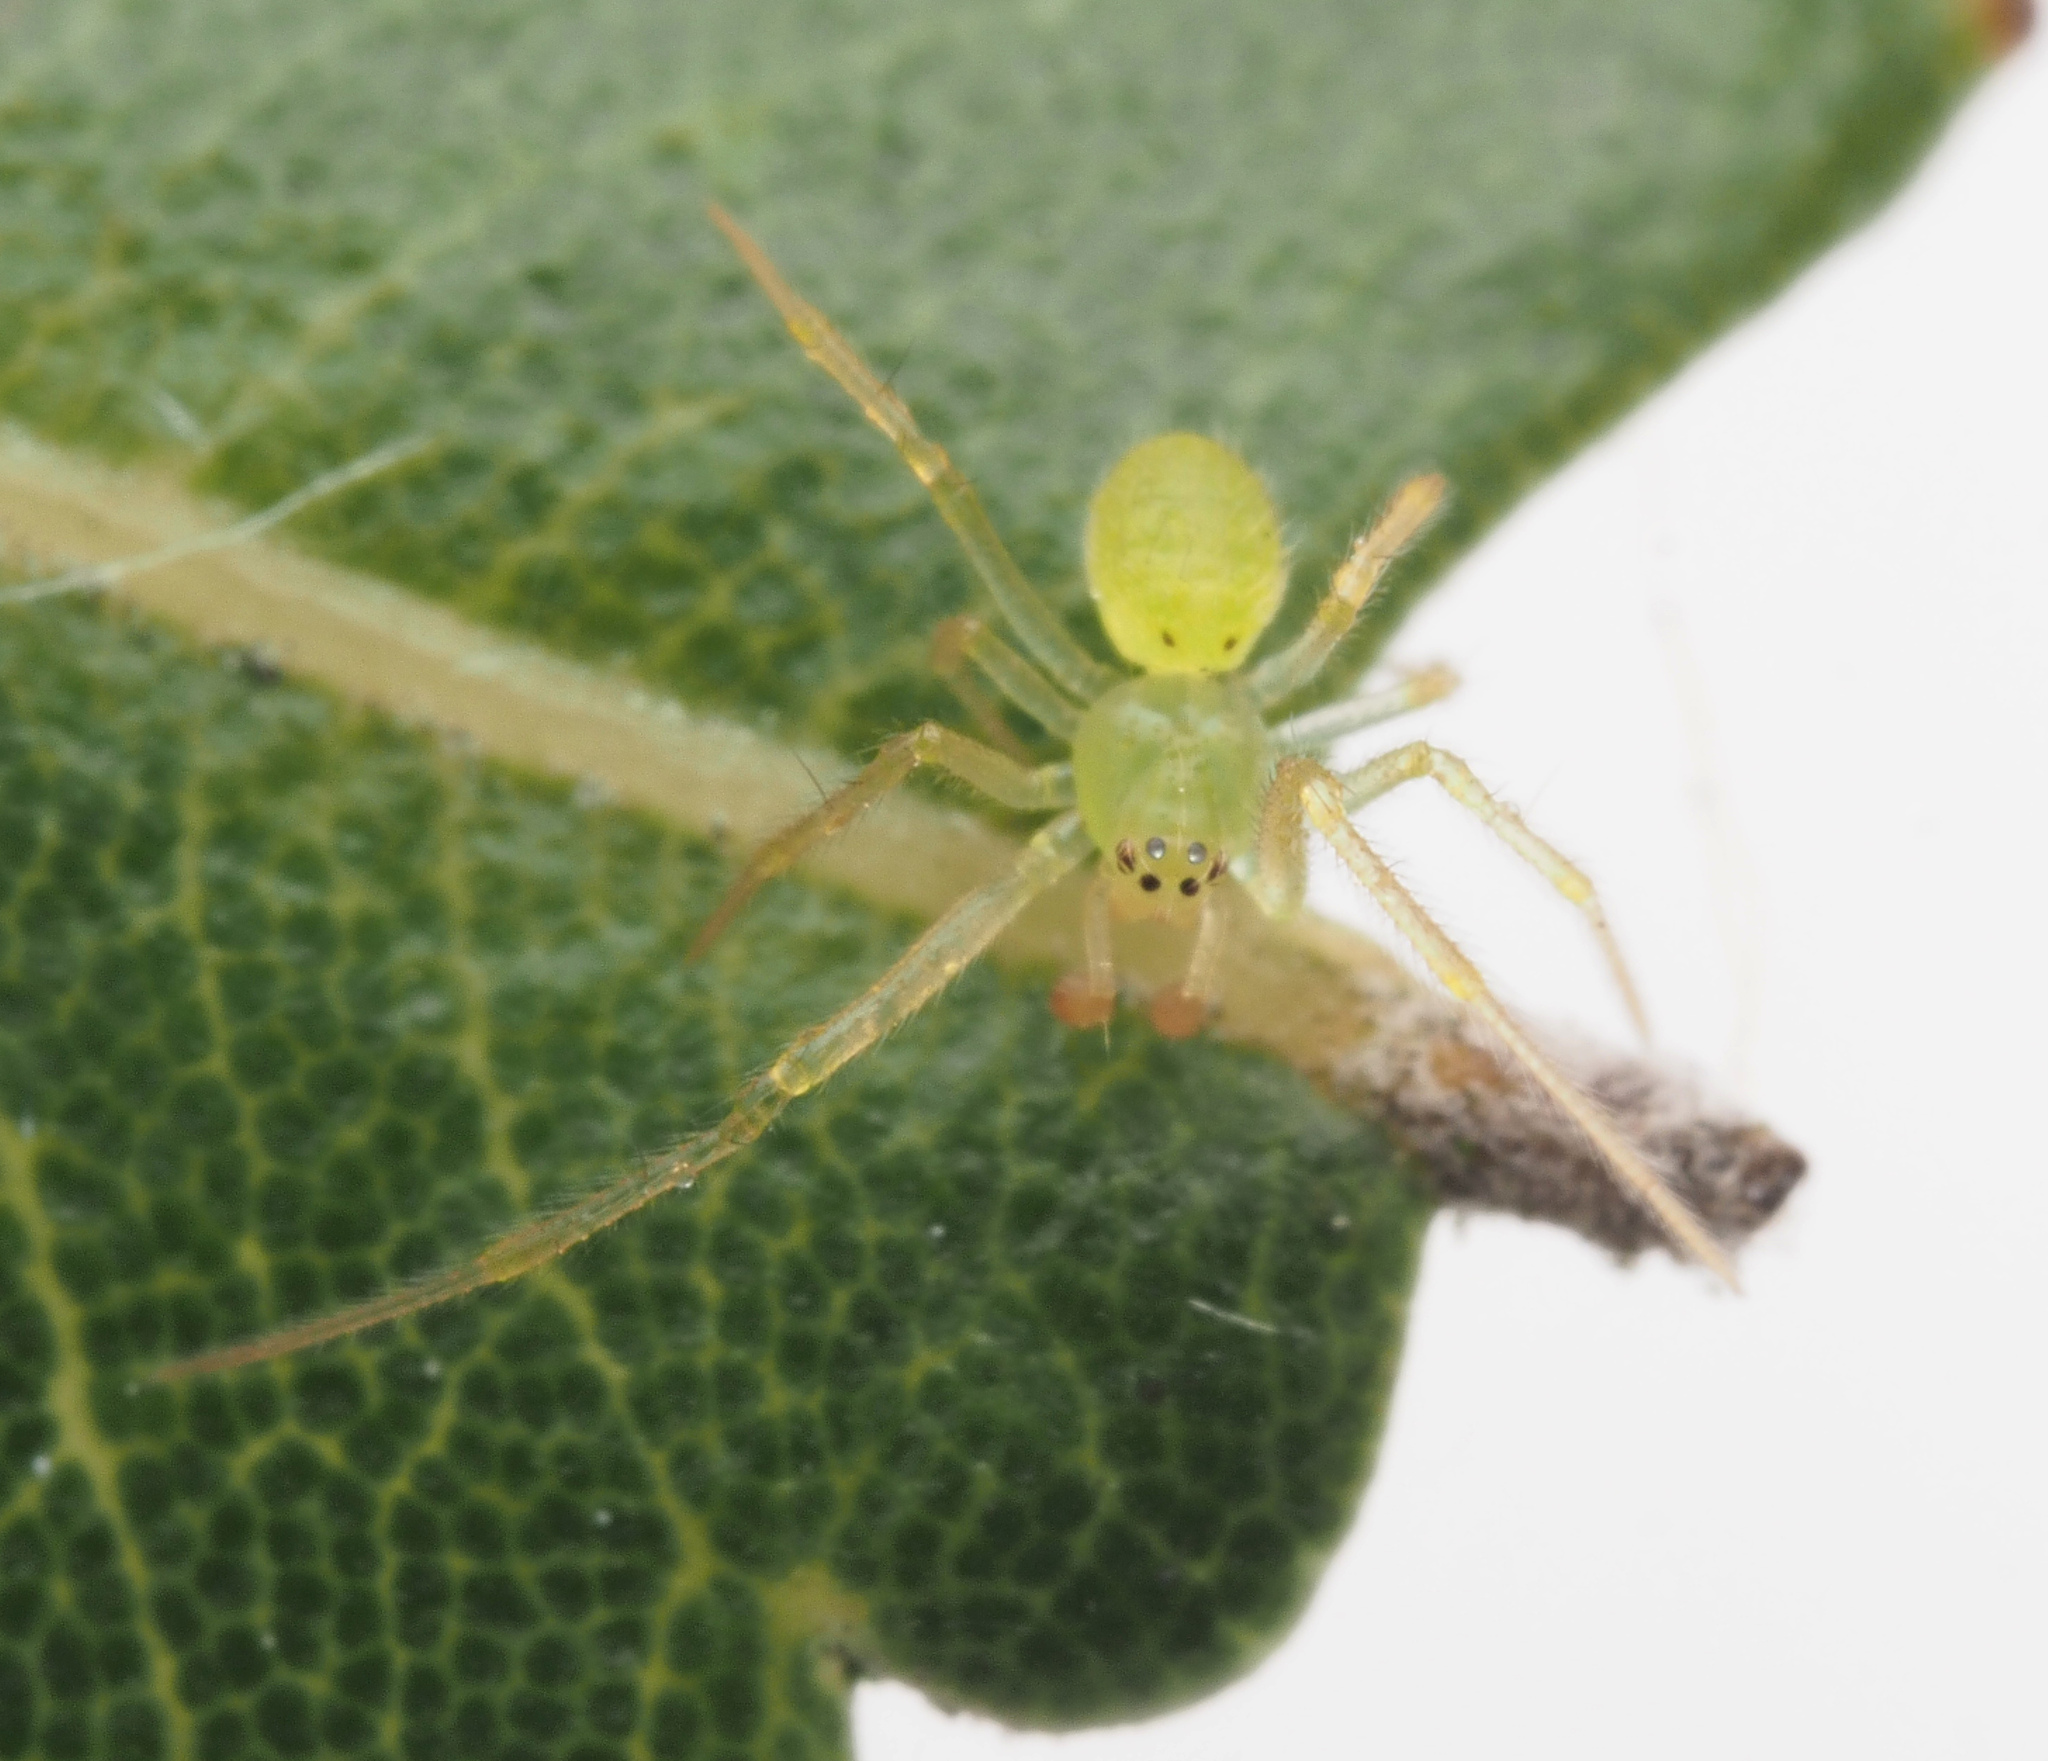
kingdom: Animalia
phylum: Arthropoda
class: Arachnida
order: Araneae
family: Theridiidae
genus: Chrysso
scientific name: Chrysso
